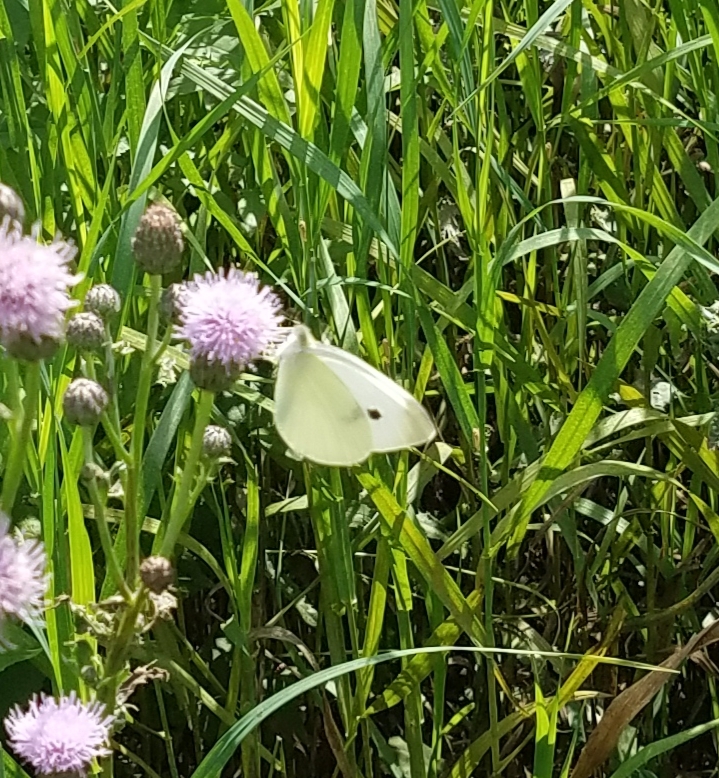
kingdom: Animalia
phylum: Arthropoda
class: Insecta
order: Lepidoptera
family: Pieridae
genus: Pieris
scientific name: Pieris rapae
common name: Small white
